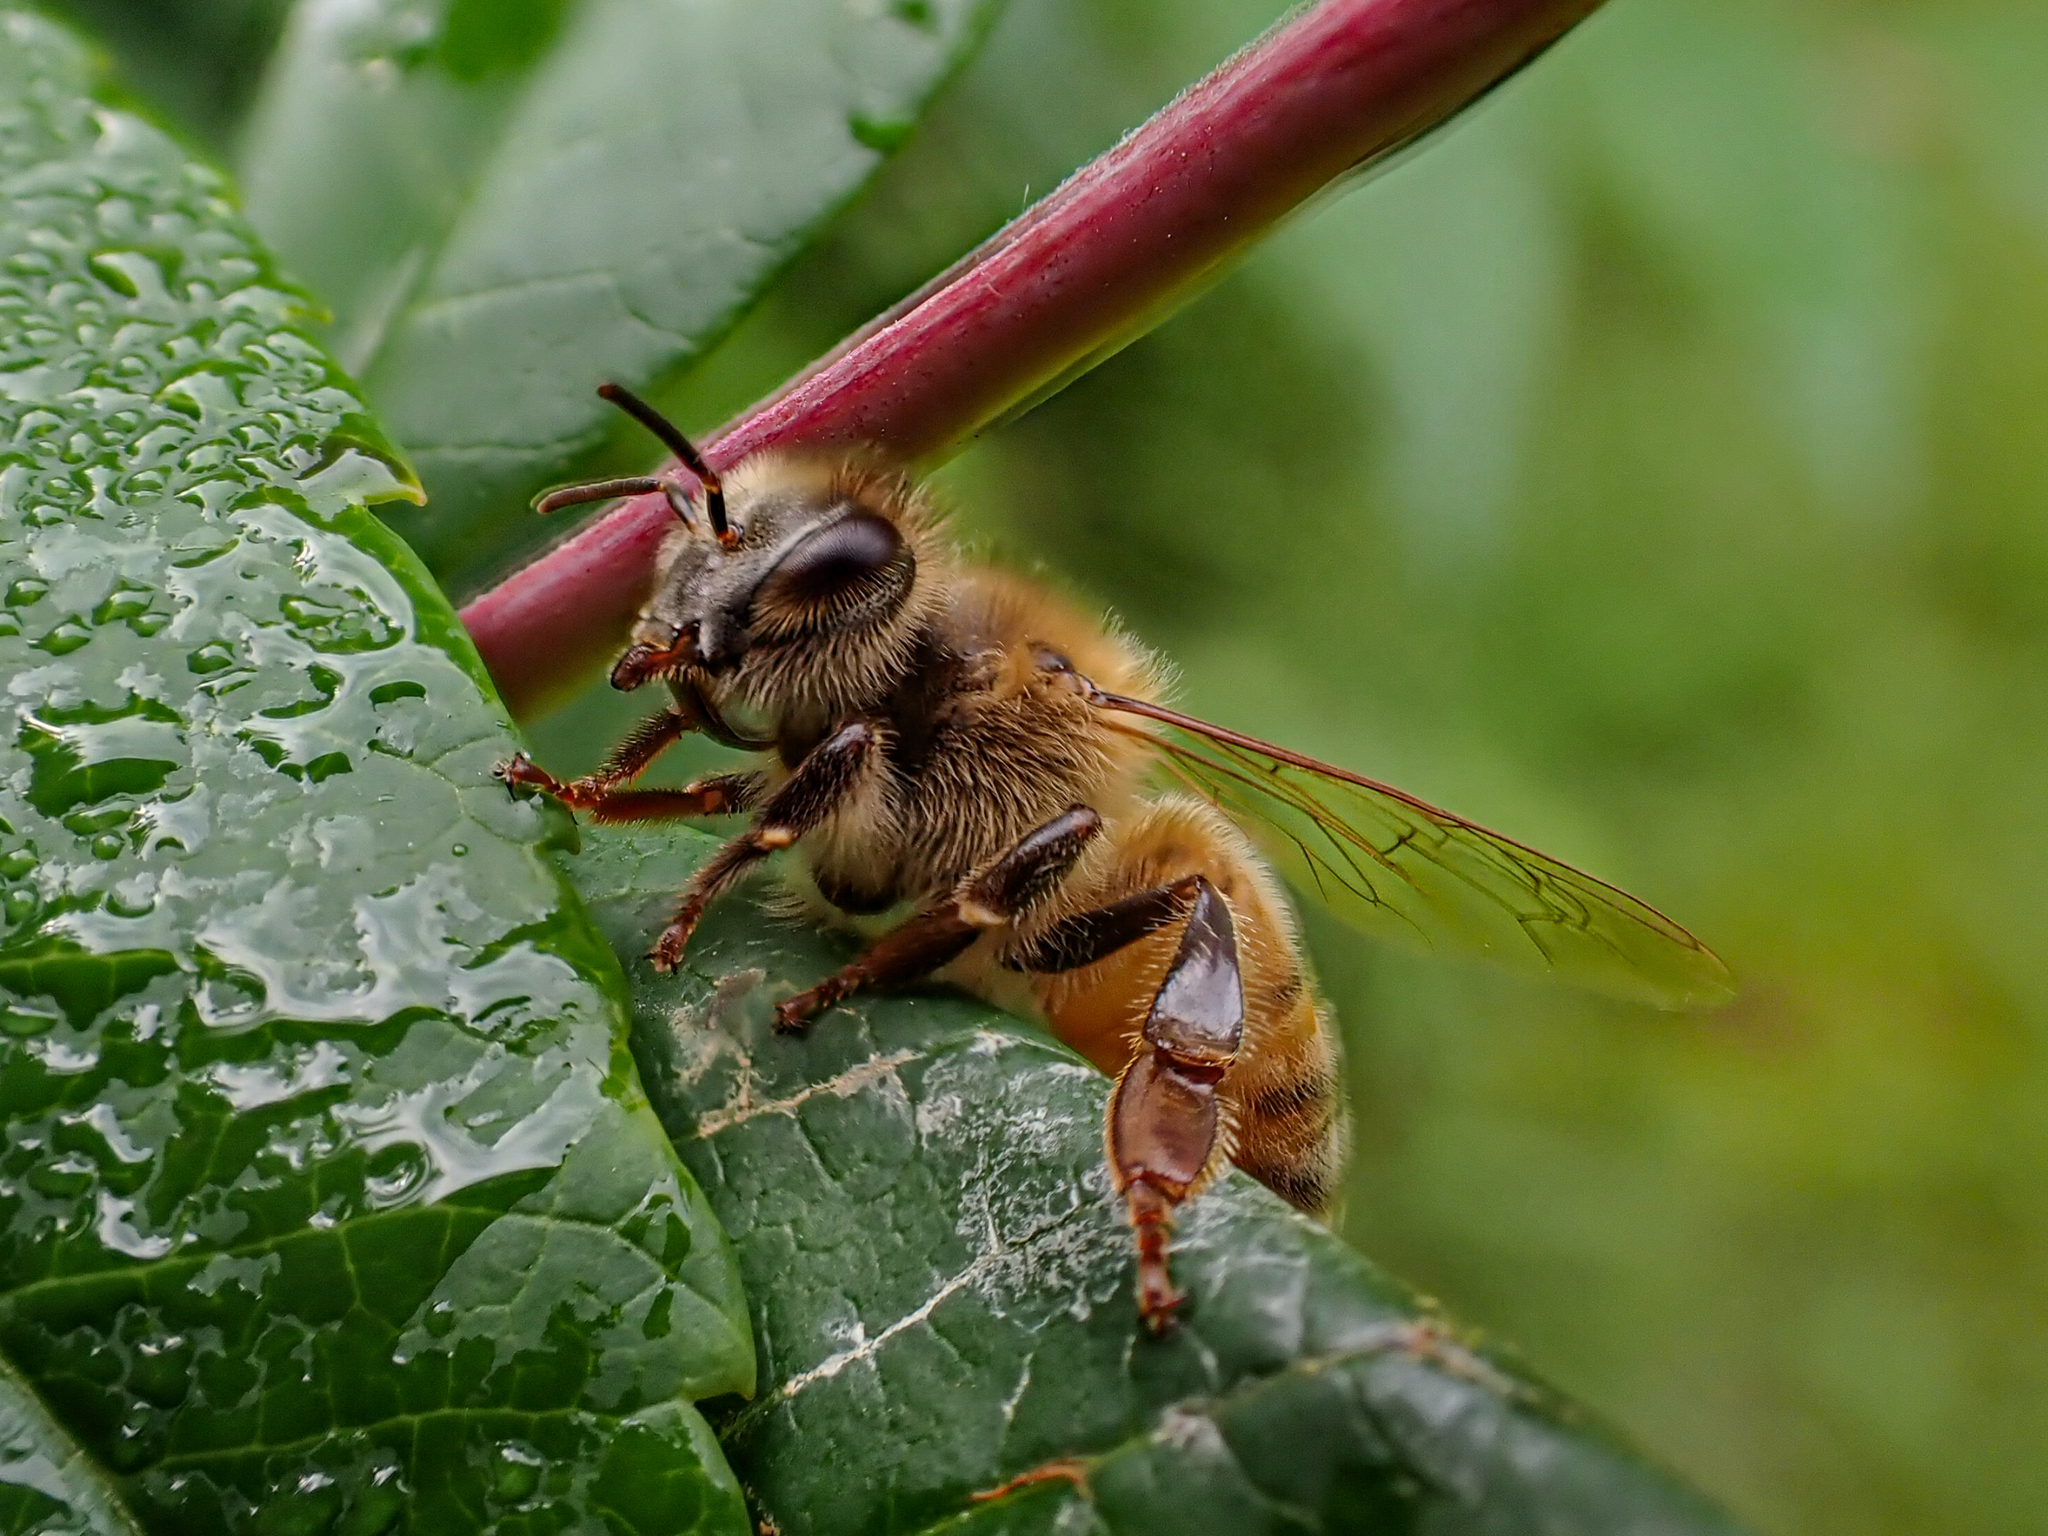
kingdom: Animalia
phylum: Arthropoda
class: Insecta
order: Hymenoptera
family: Apidae
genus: Apis
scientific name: Apis mellifera
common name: Honey bee
